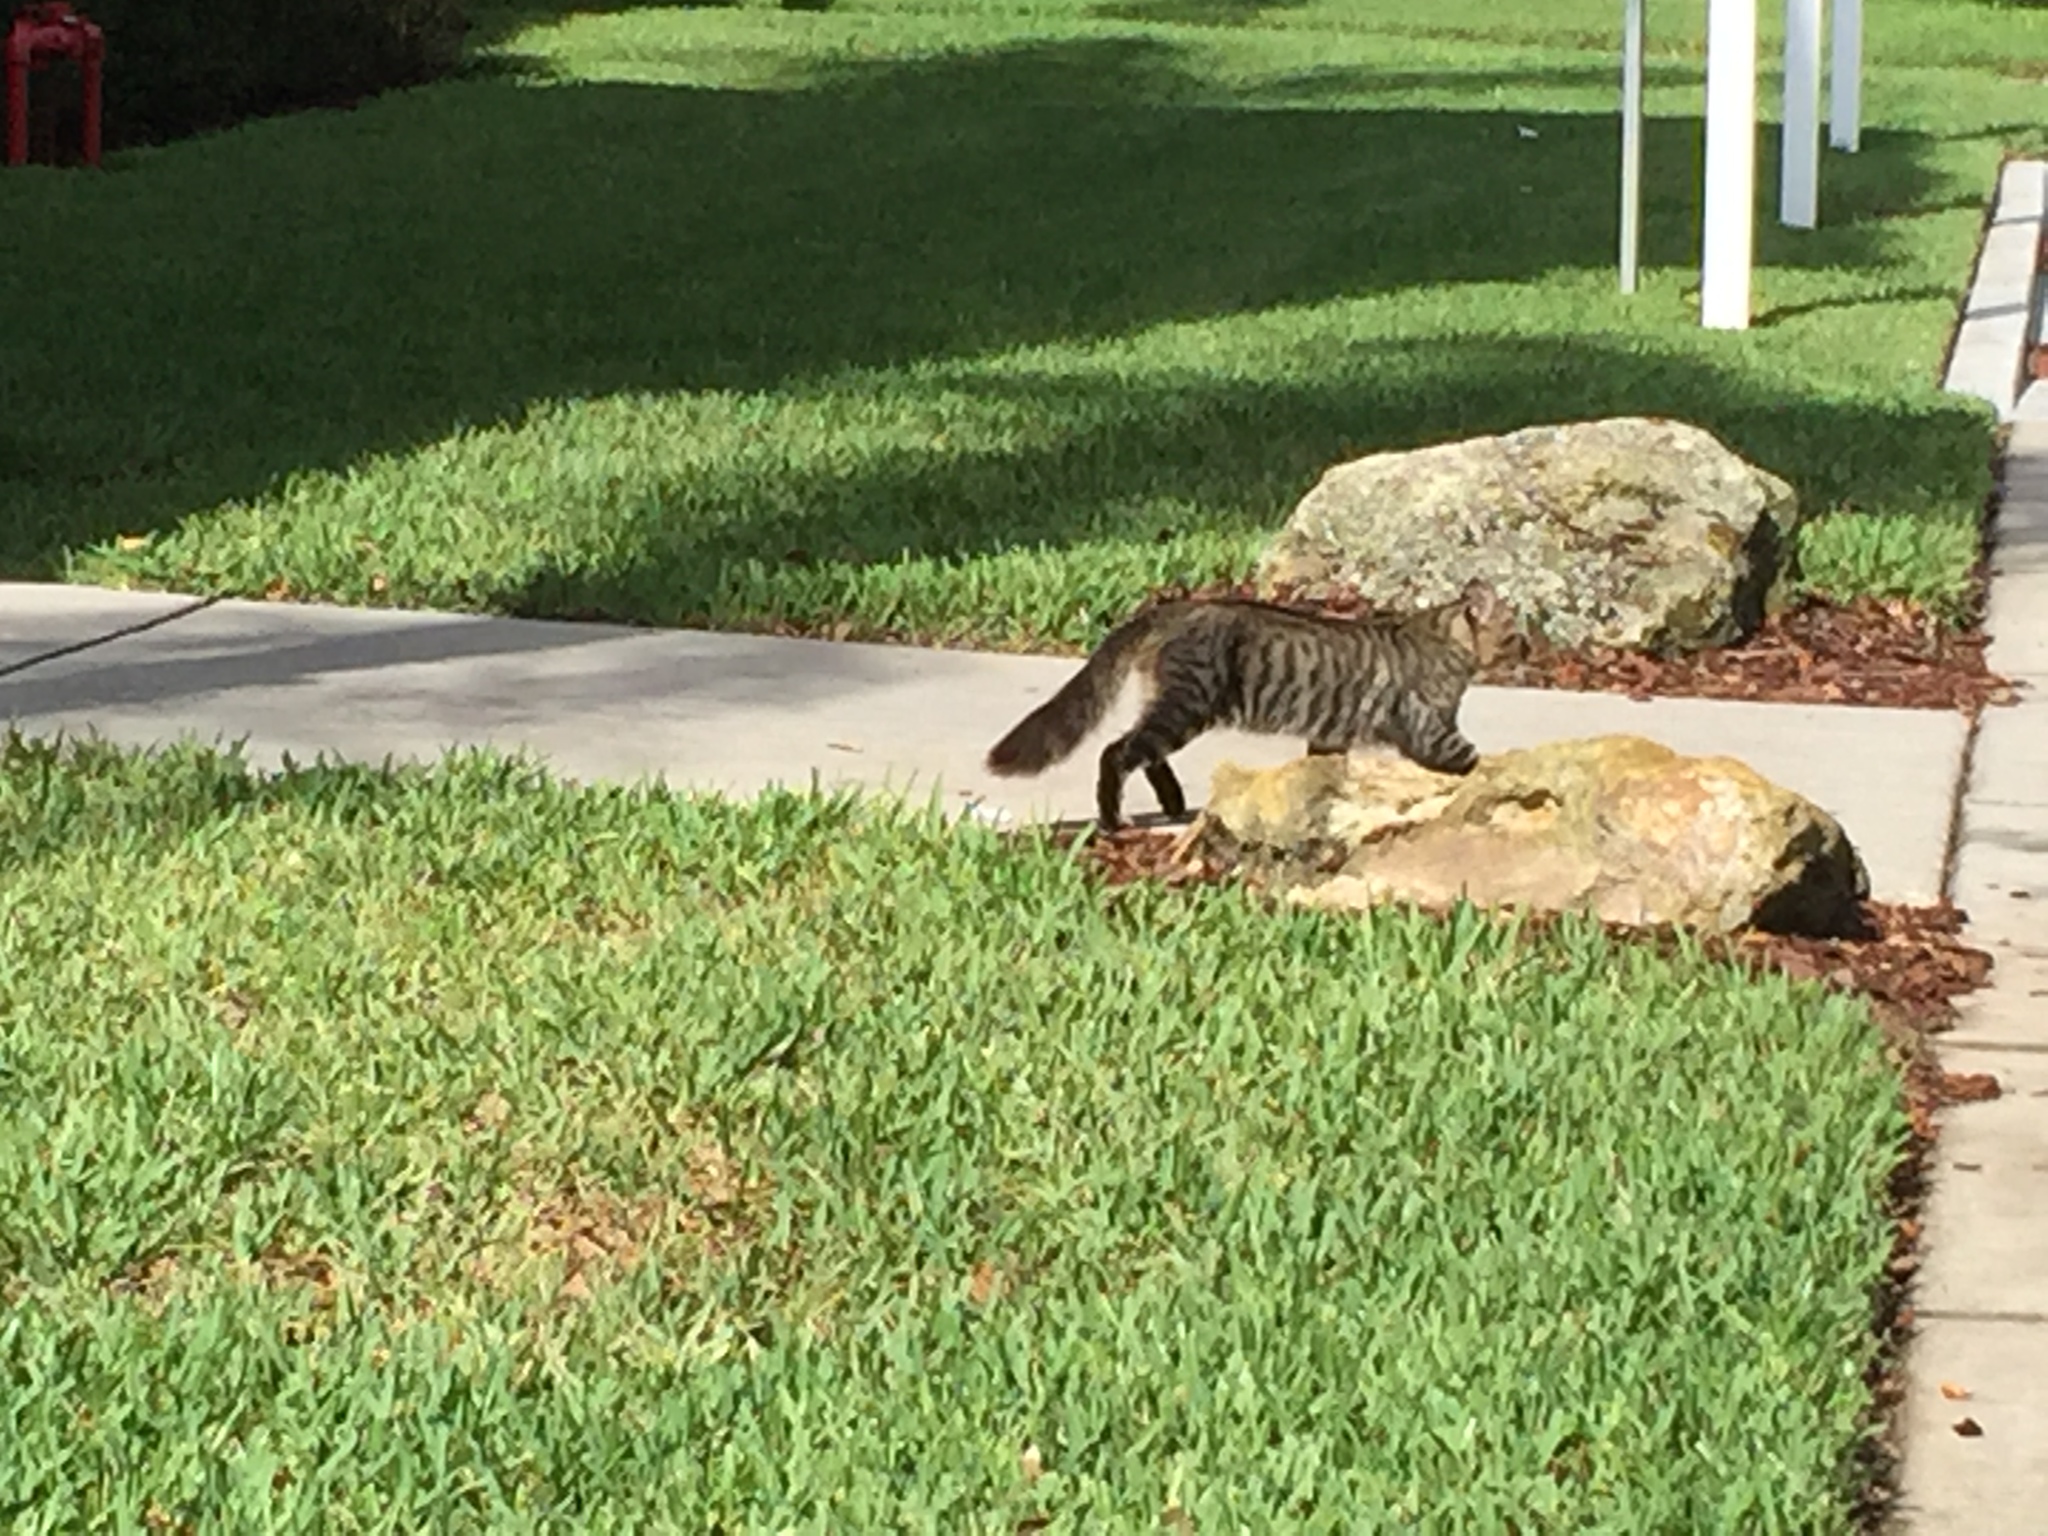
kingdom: Animalia
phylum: Chordata
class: Mammalia
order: Carnivora
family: Felidae
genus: Felis
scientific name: Felis catus
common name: Domestic cat
